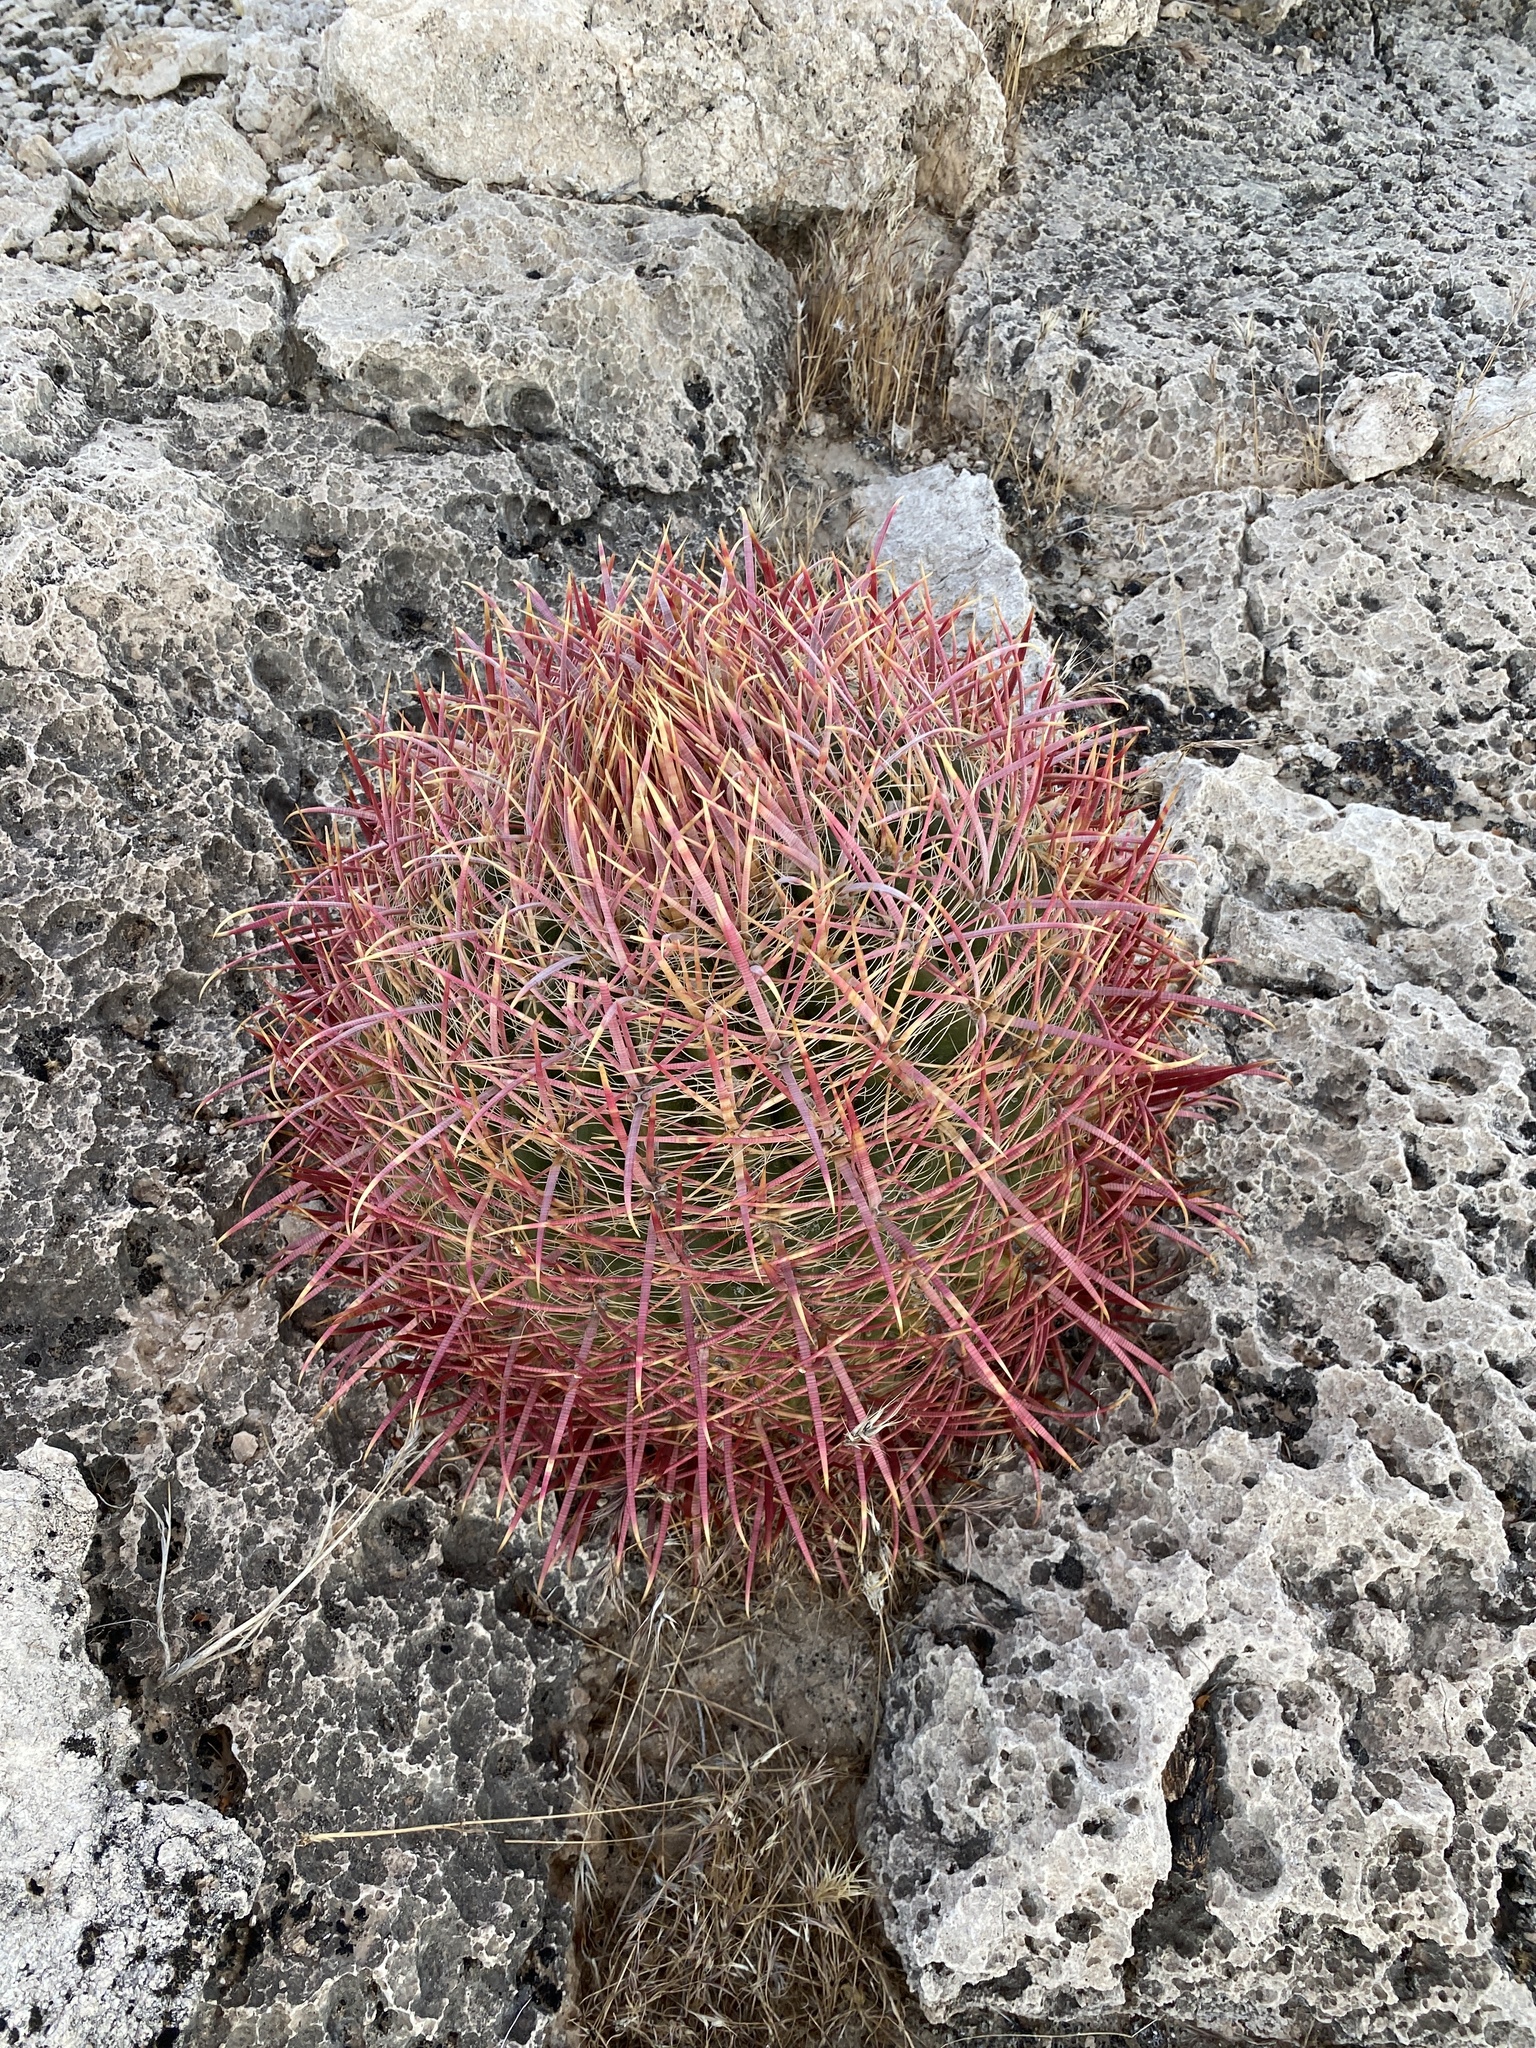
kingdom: Plantae
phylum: Tracheophyta
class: Magnoliopsida
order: Caryophyllales
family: Cactaceae
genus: Ferocactus
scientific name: Ferocactus cylindraceus
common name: California barrel cactus
